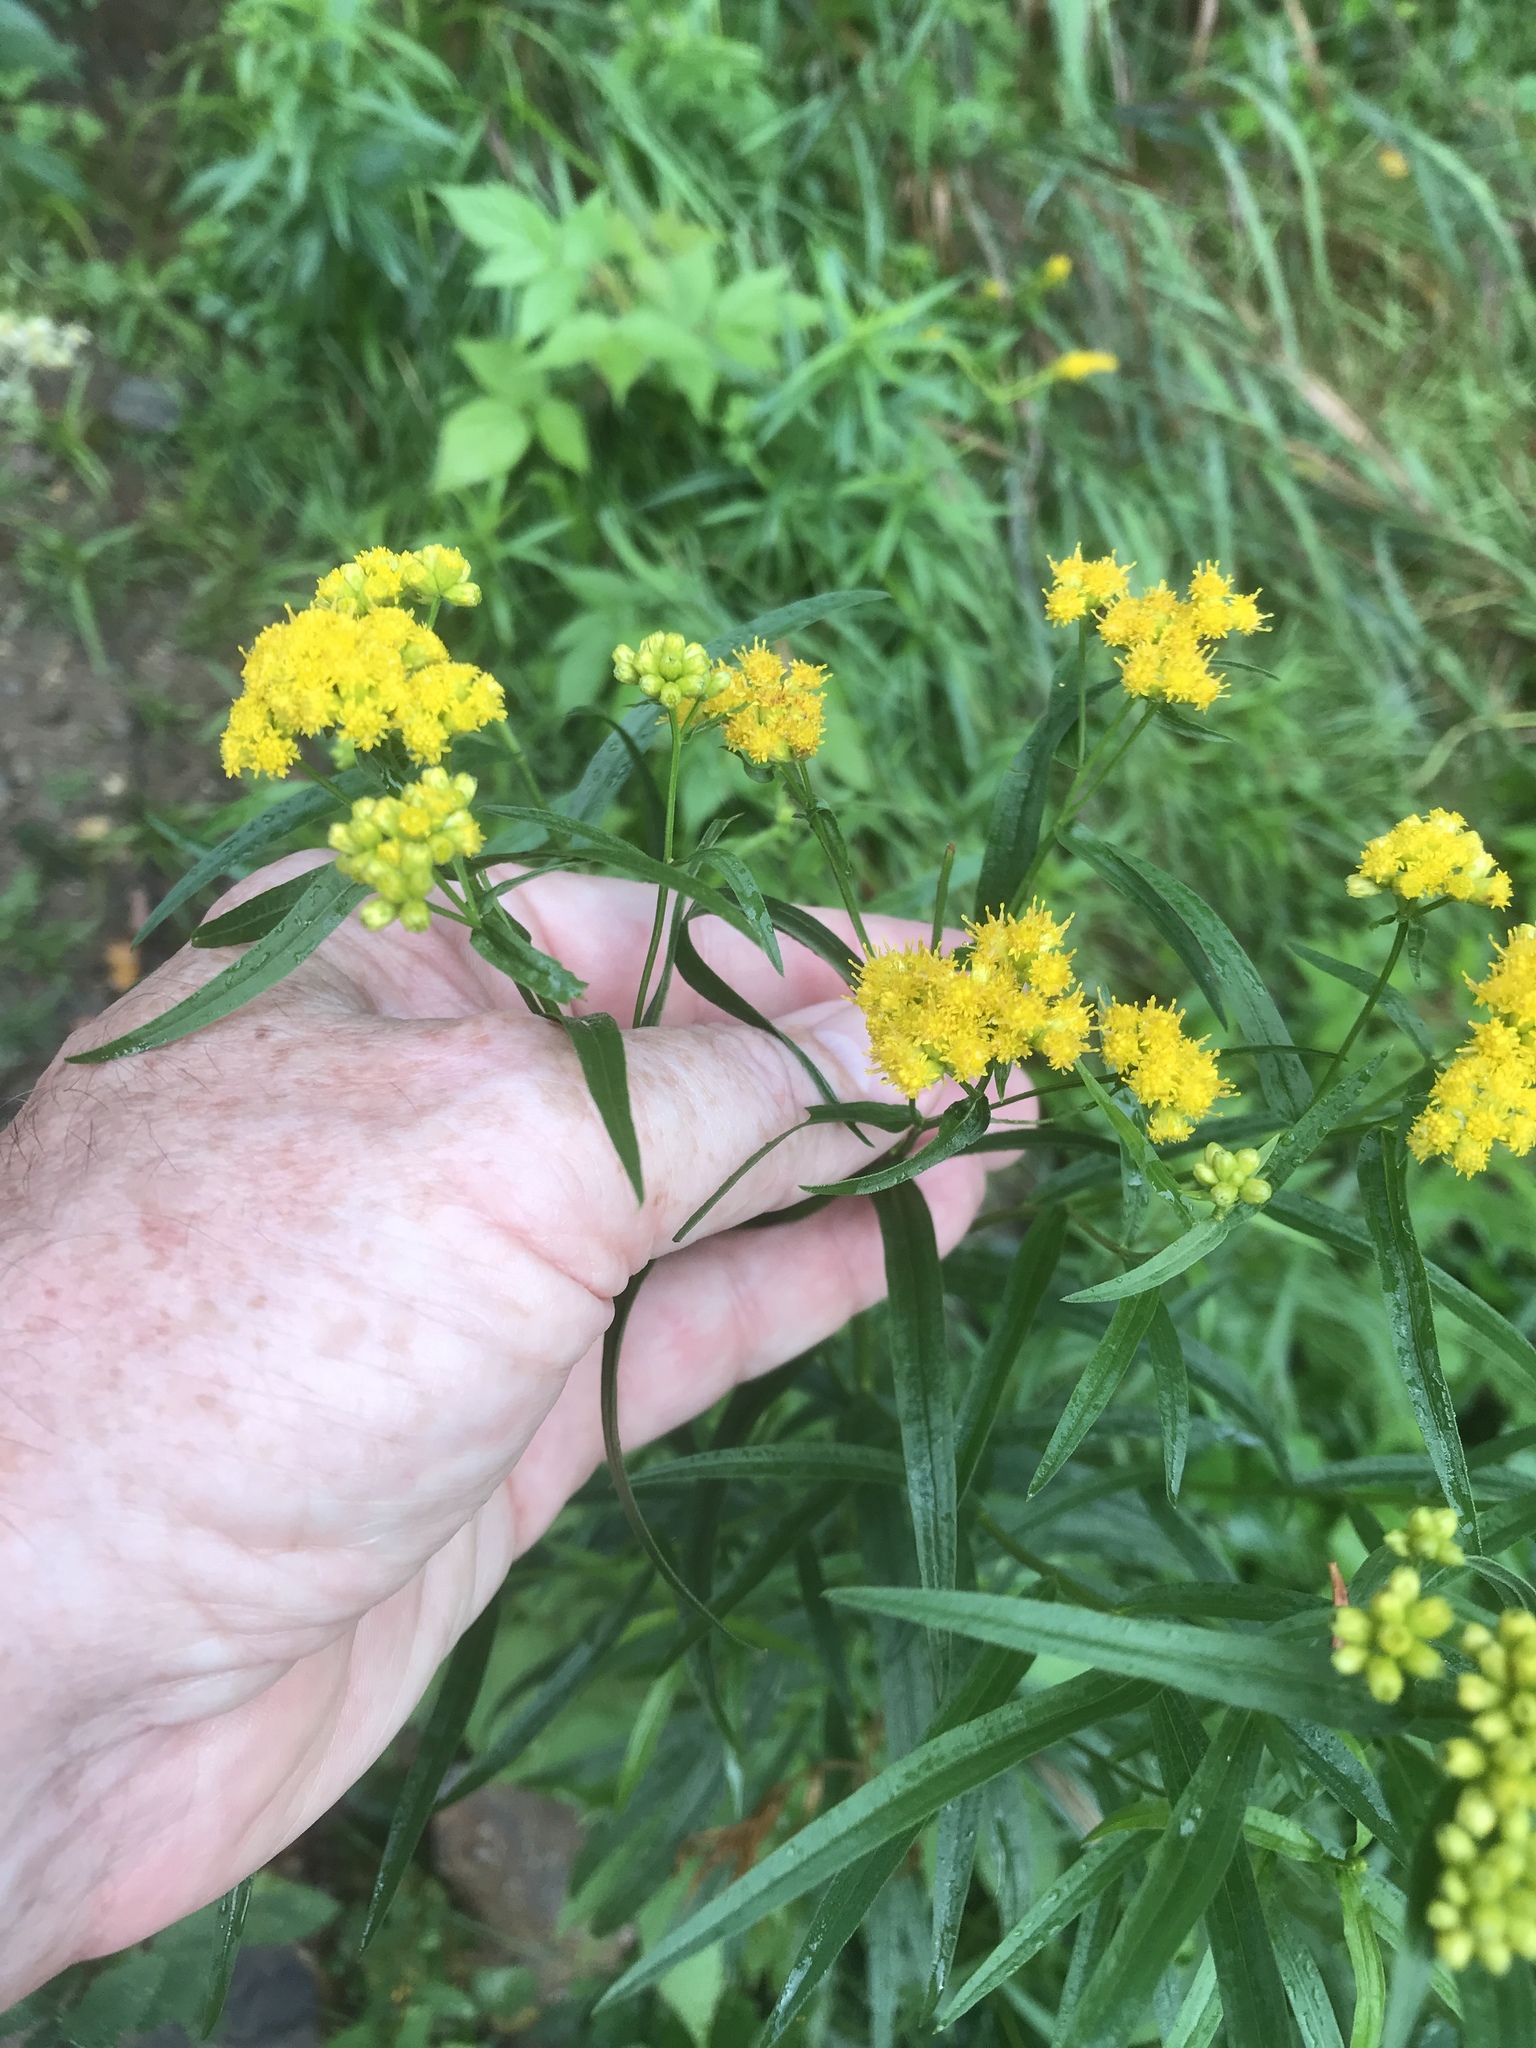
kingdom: Plantae
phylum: Tracheophyta
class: Magnoliopsida
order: Asterales
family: Asteraceae
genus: Euthamia
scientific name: Euthamia graminifolia
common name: Common goldentop
